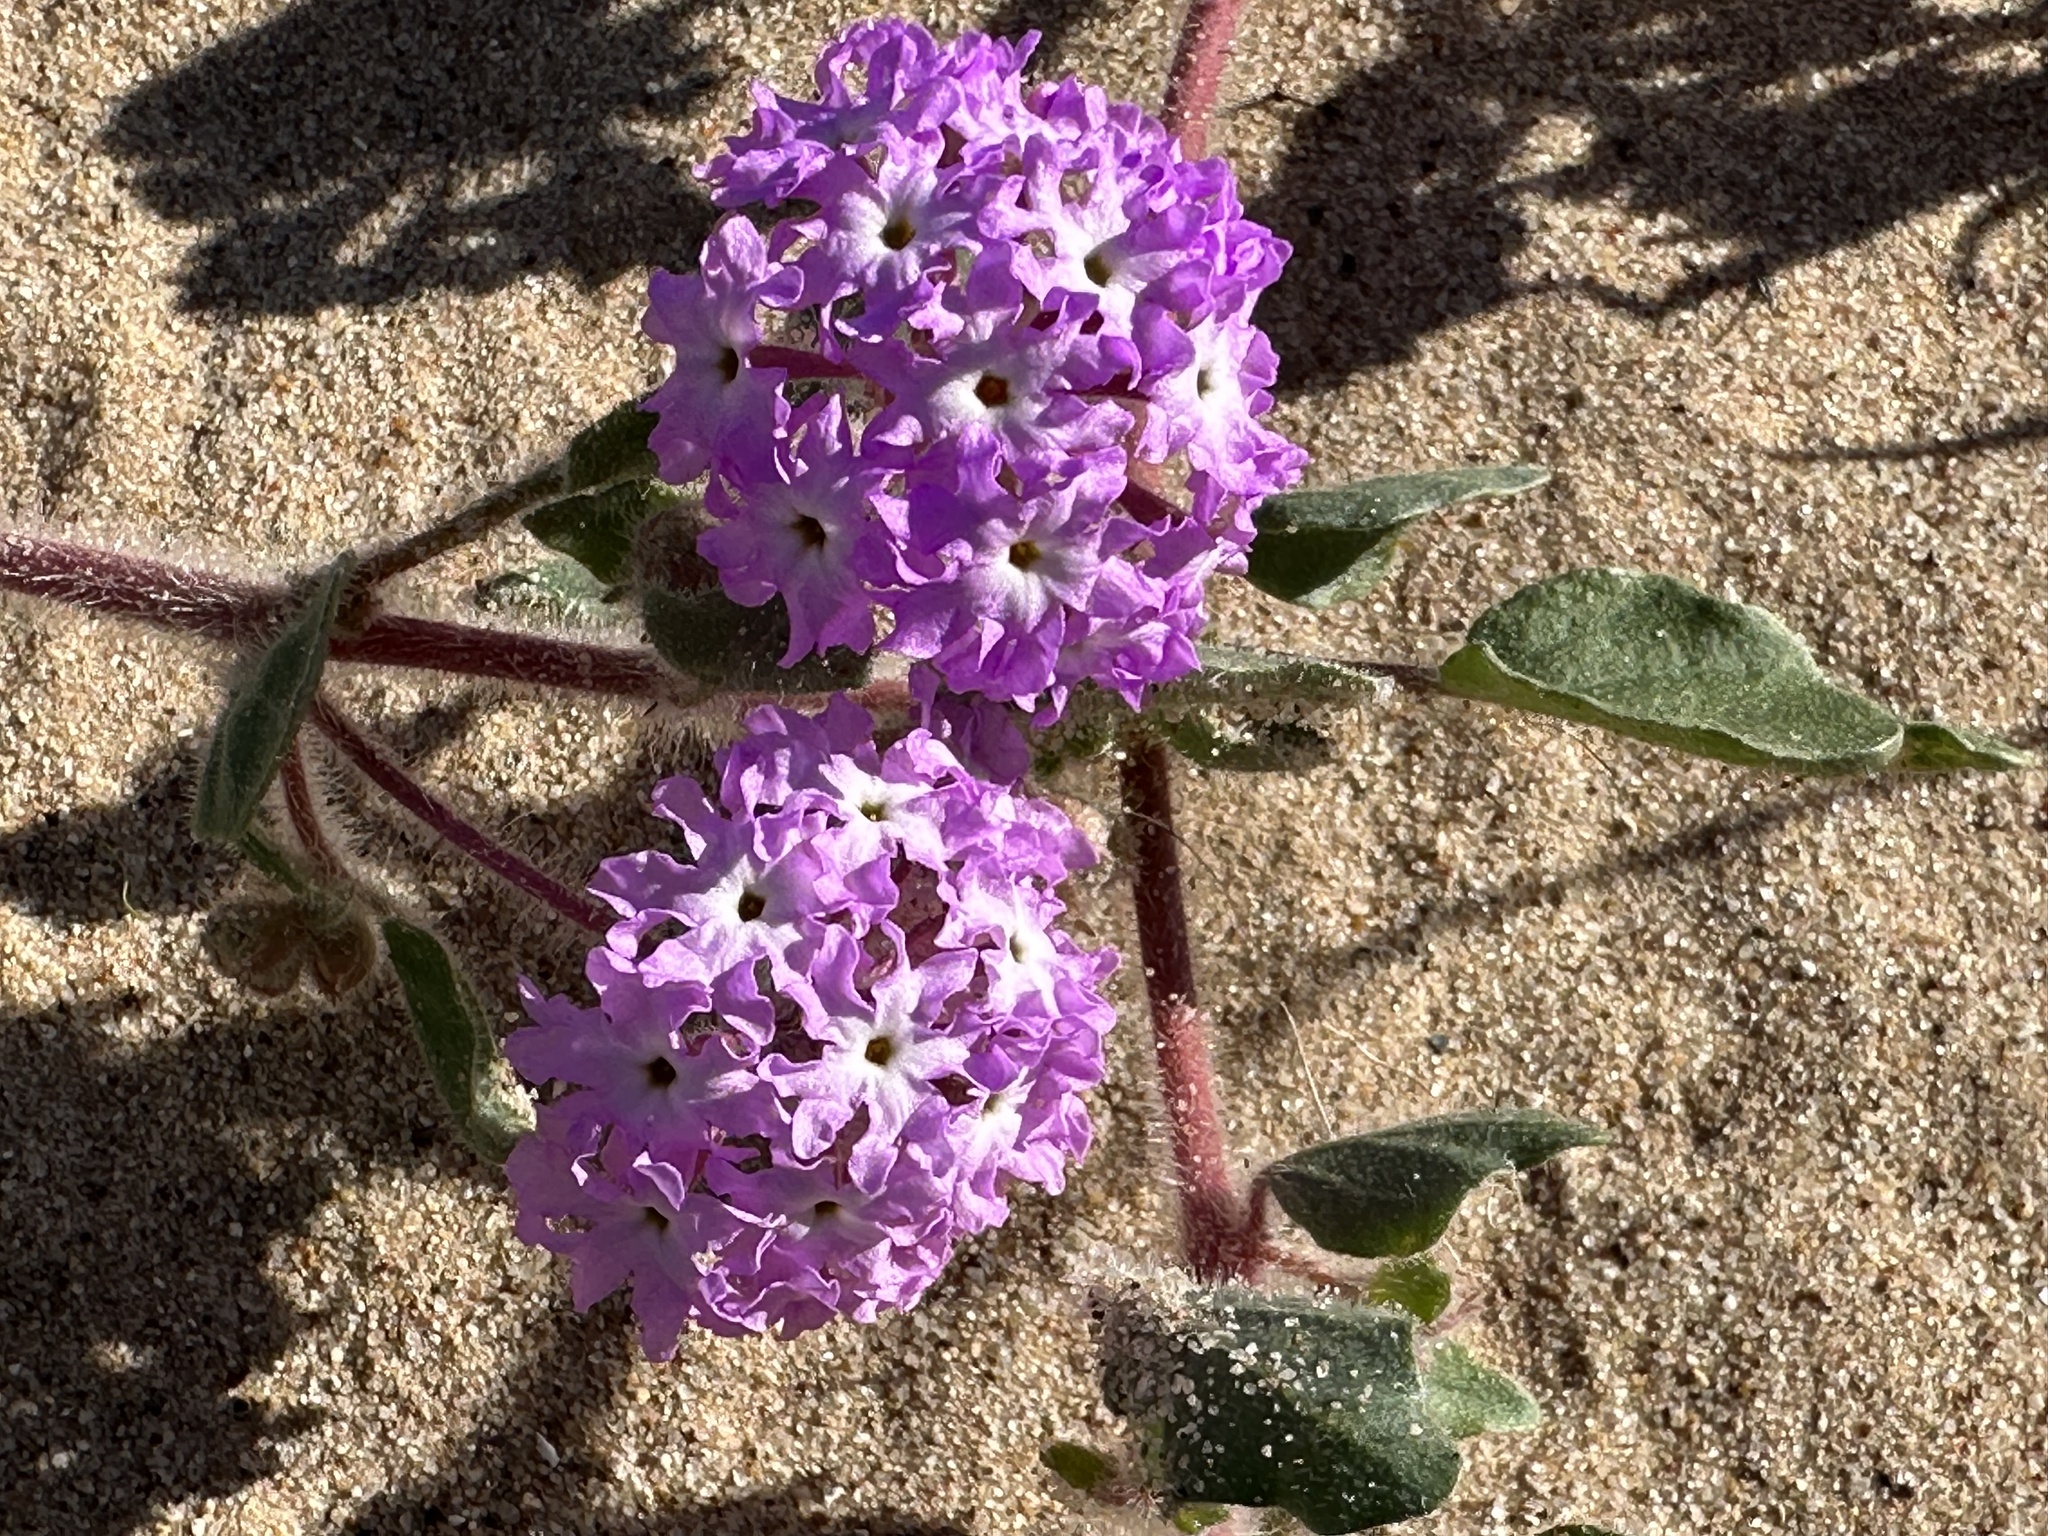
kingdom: Plantae
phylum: Tracheophyta
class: Magnoliopsida
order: Caryophyllales
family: Nyctaginaceae
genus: Abronia
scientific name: Abronia villosa
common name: Desert sand-verbena
